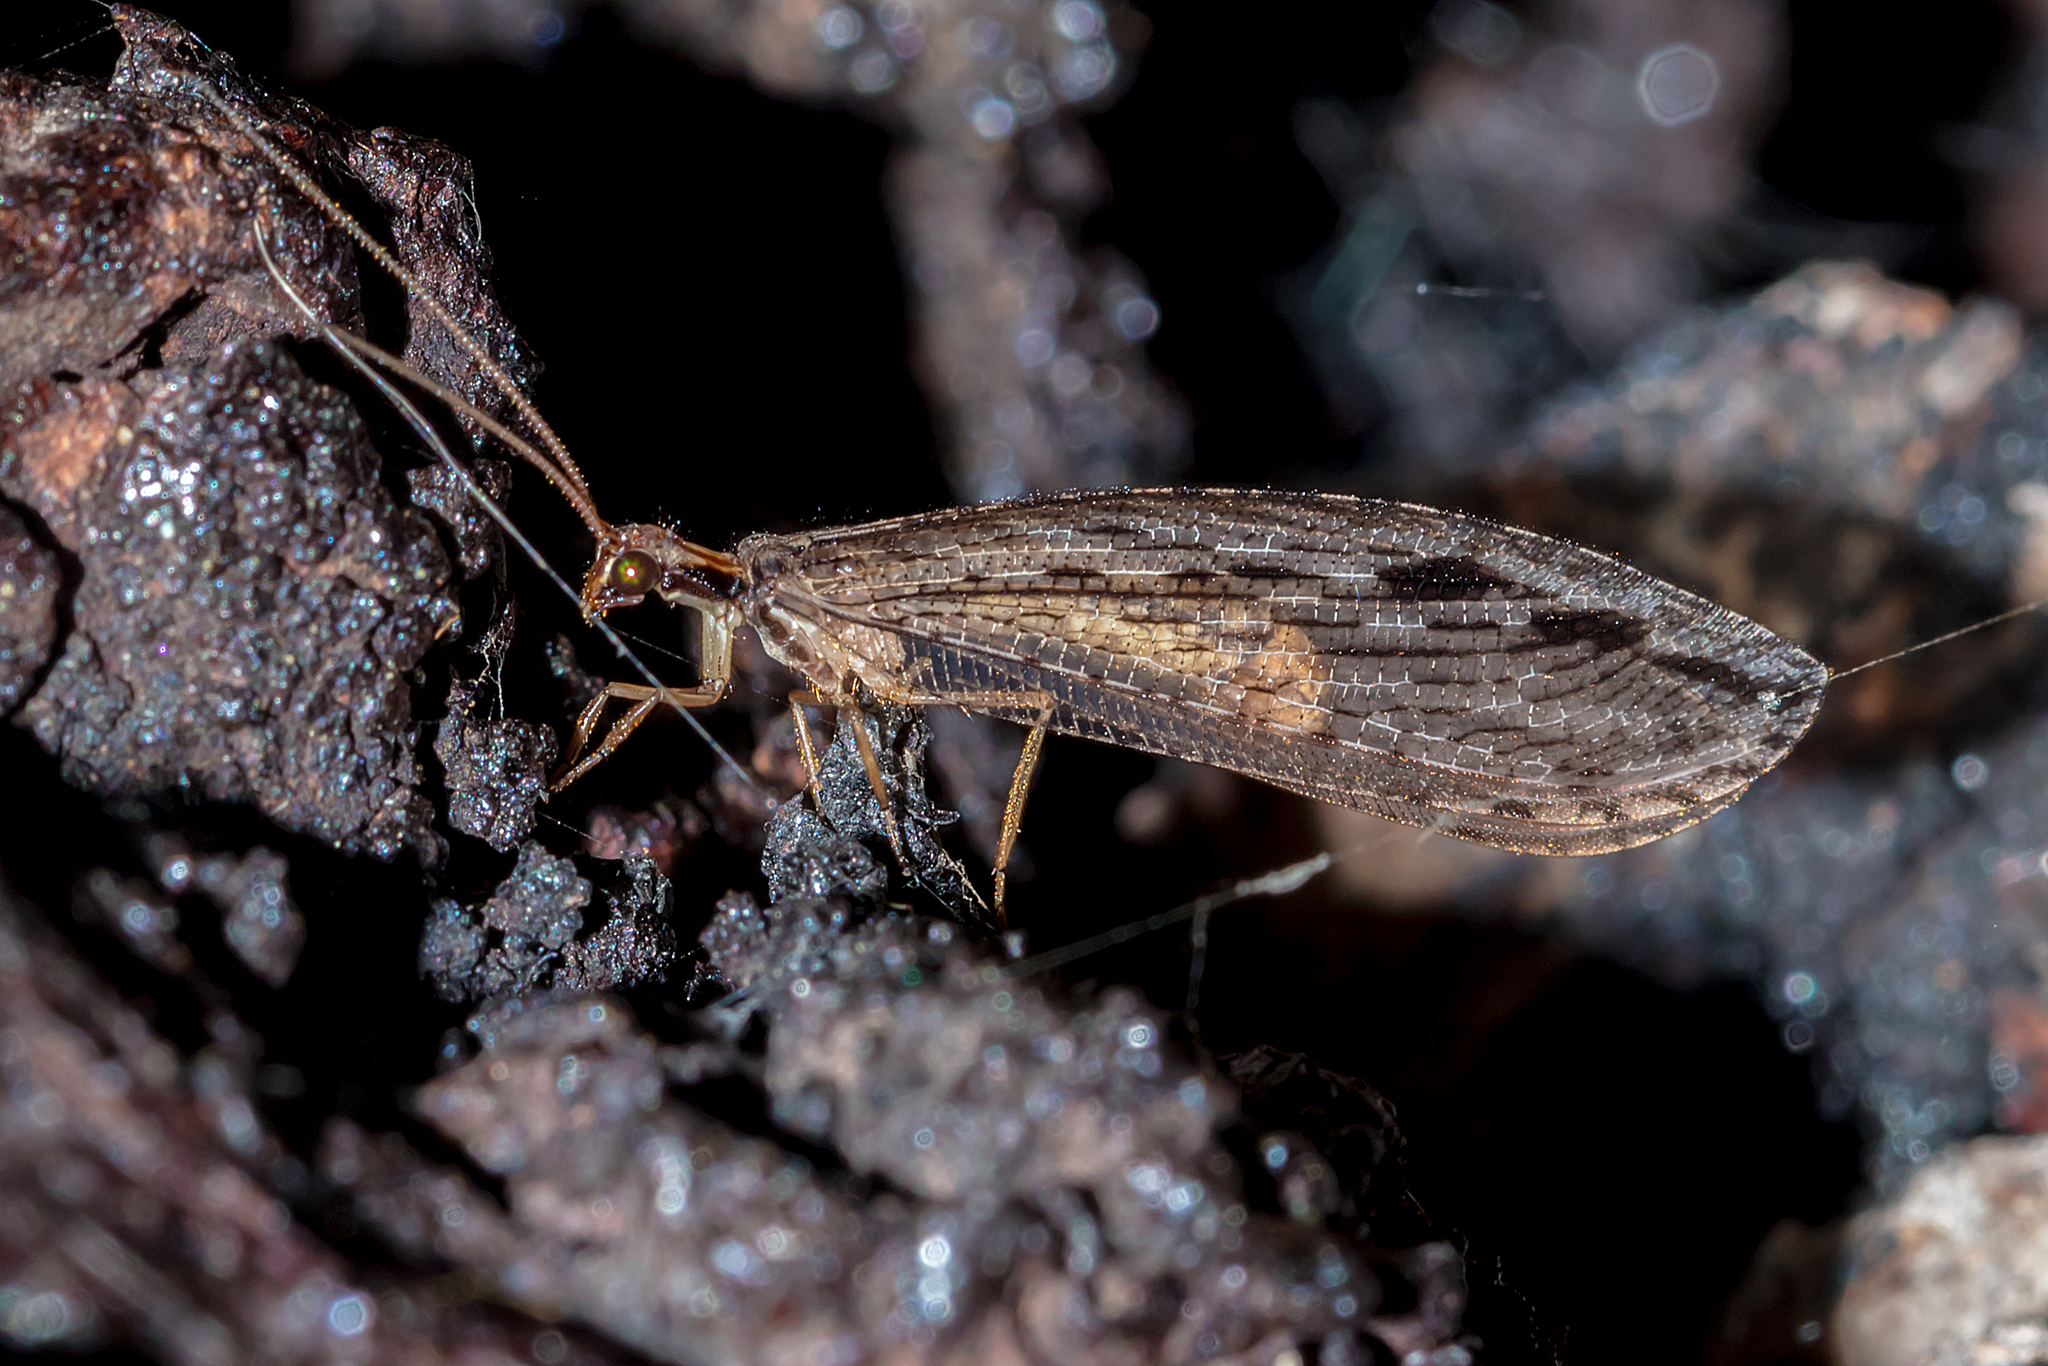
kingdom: Animalia
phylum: Arthropoda
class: Insecta
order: Neuroptera
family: Osmylidae
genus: Stenosmylus
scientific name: Stenosmylus stenopterus
